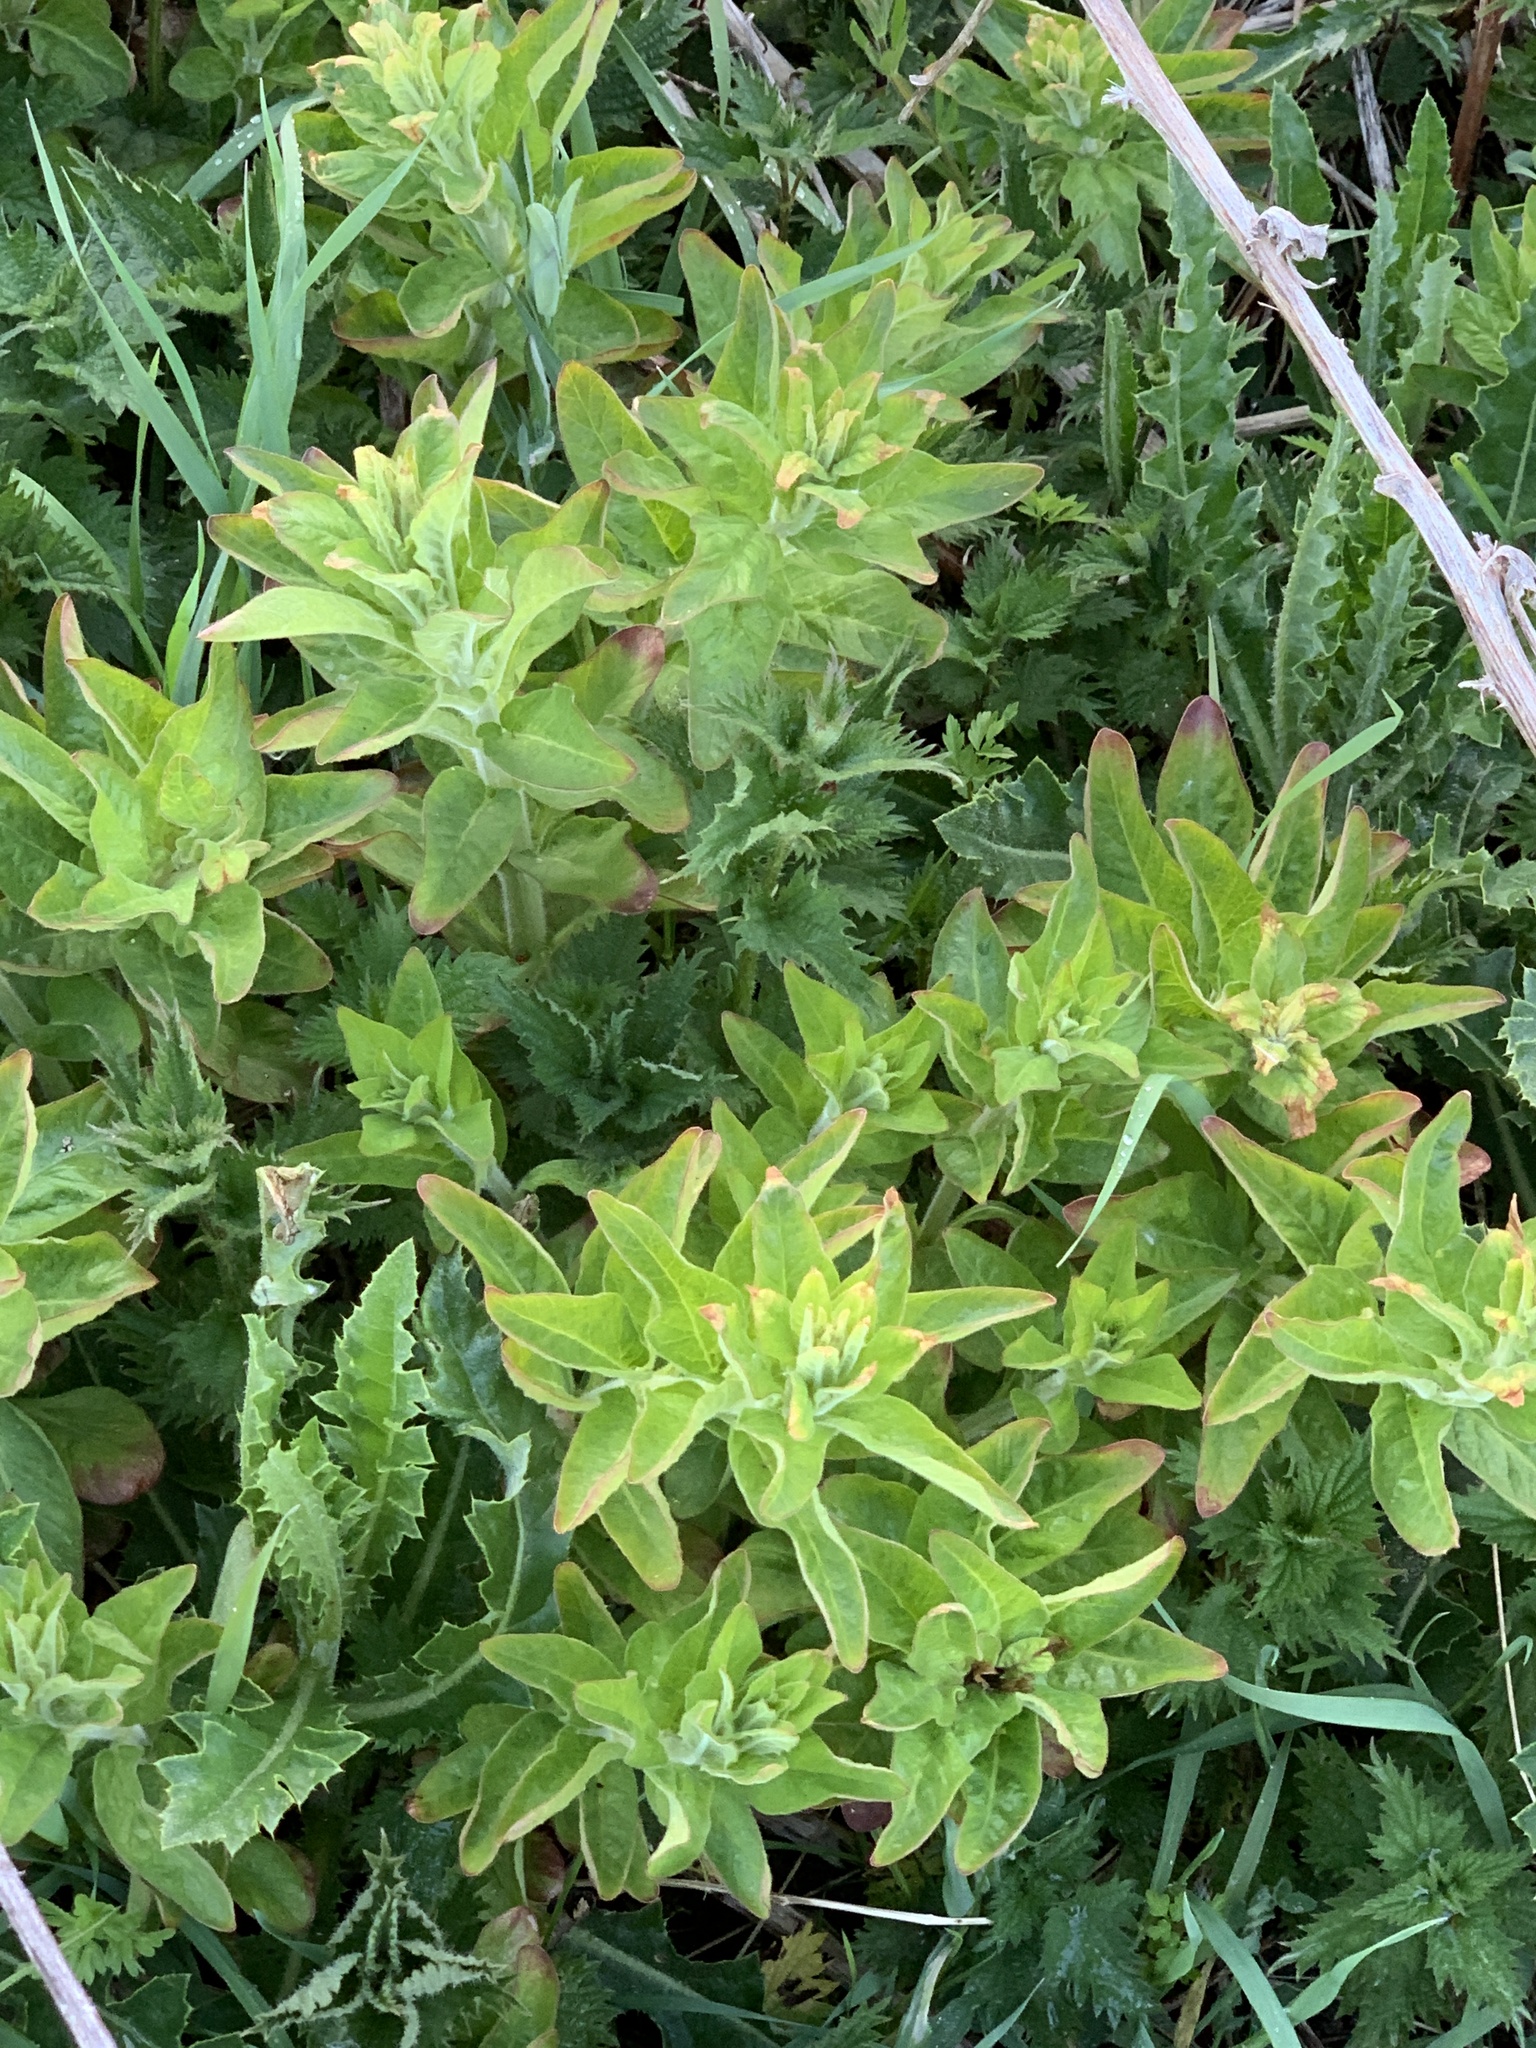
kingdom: Plantae
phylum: Tracheophyta
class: Magnoliopsida
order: Ericales
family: Primulaceae
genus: Lysimachia
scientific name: Lysimachia punctata
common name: Dotted loosestrife
